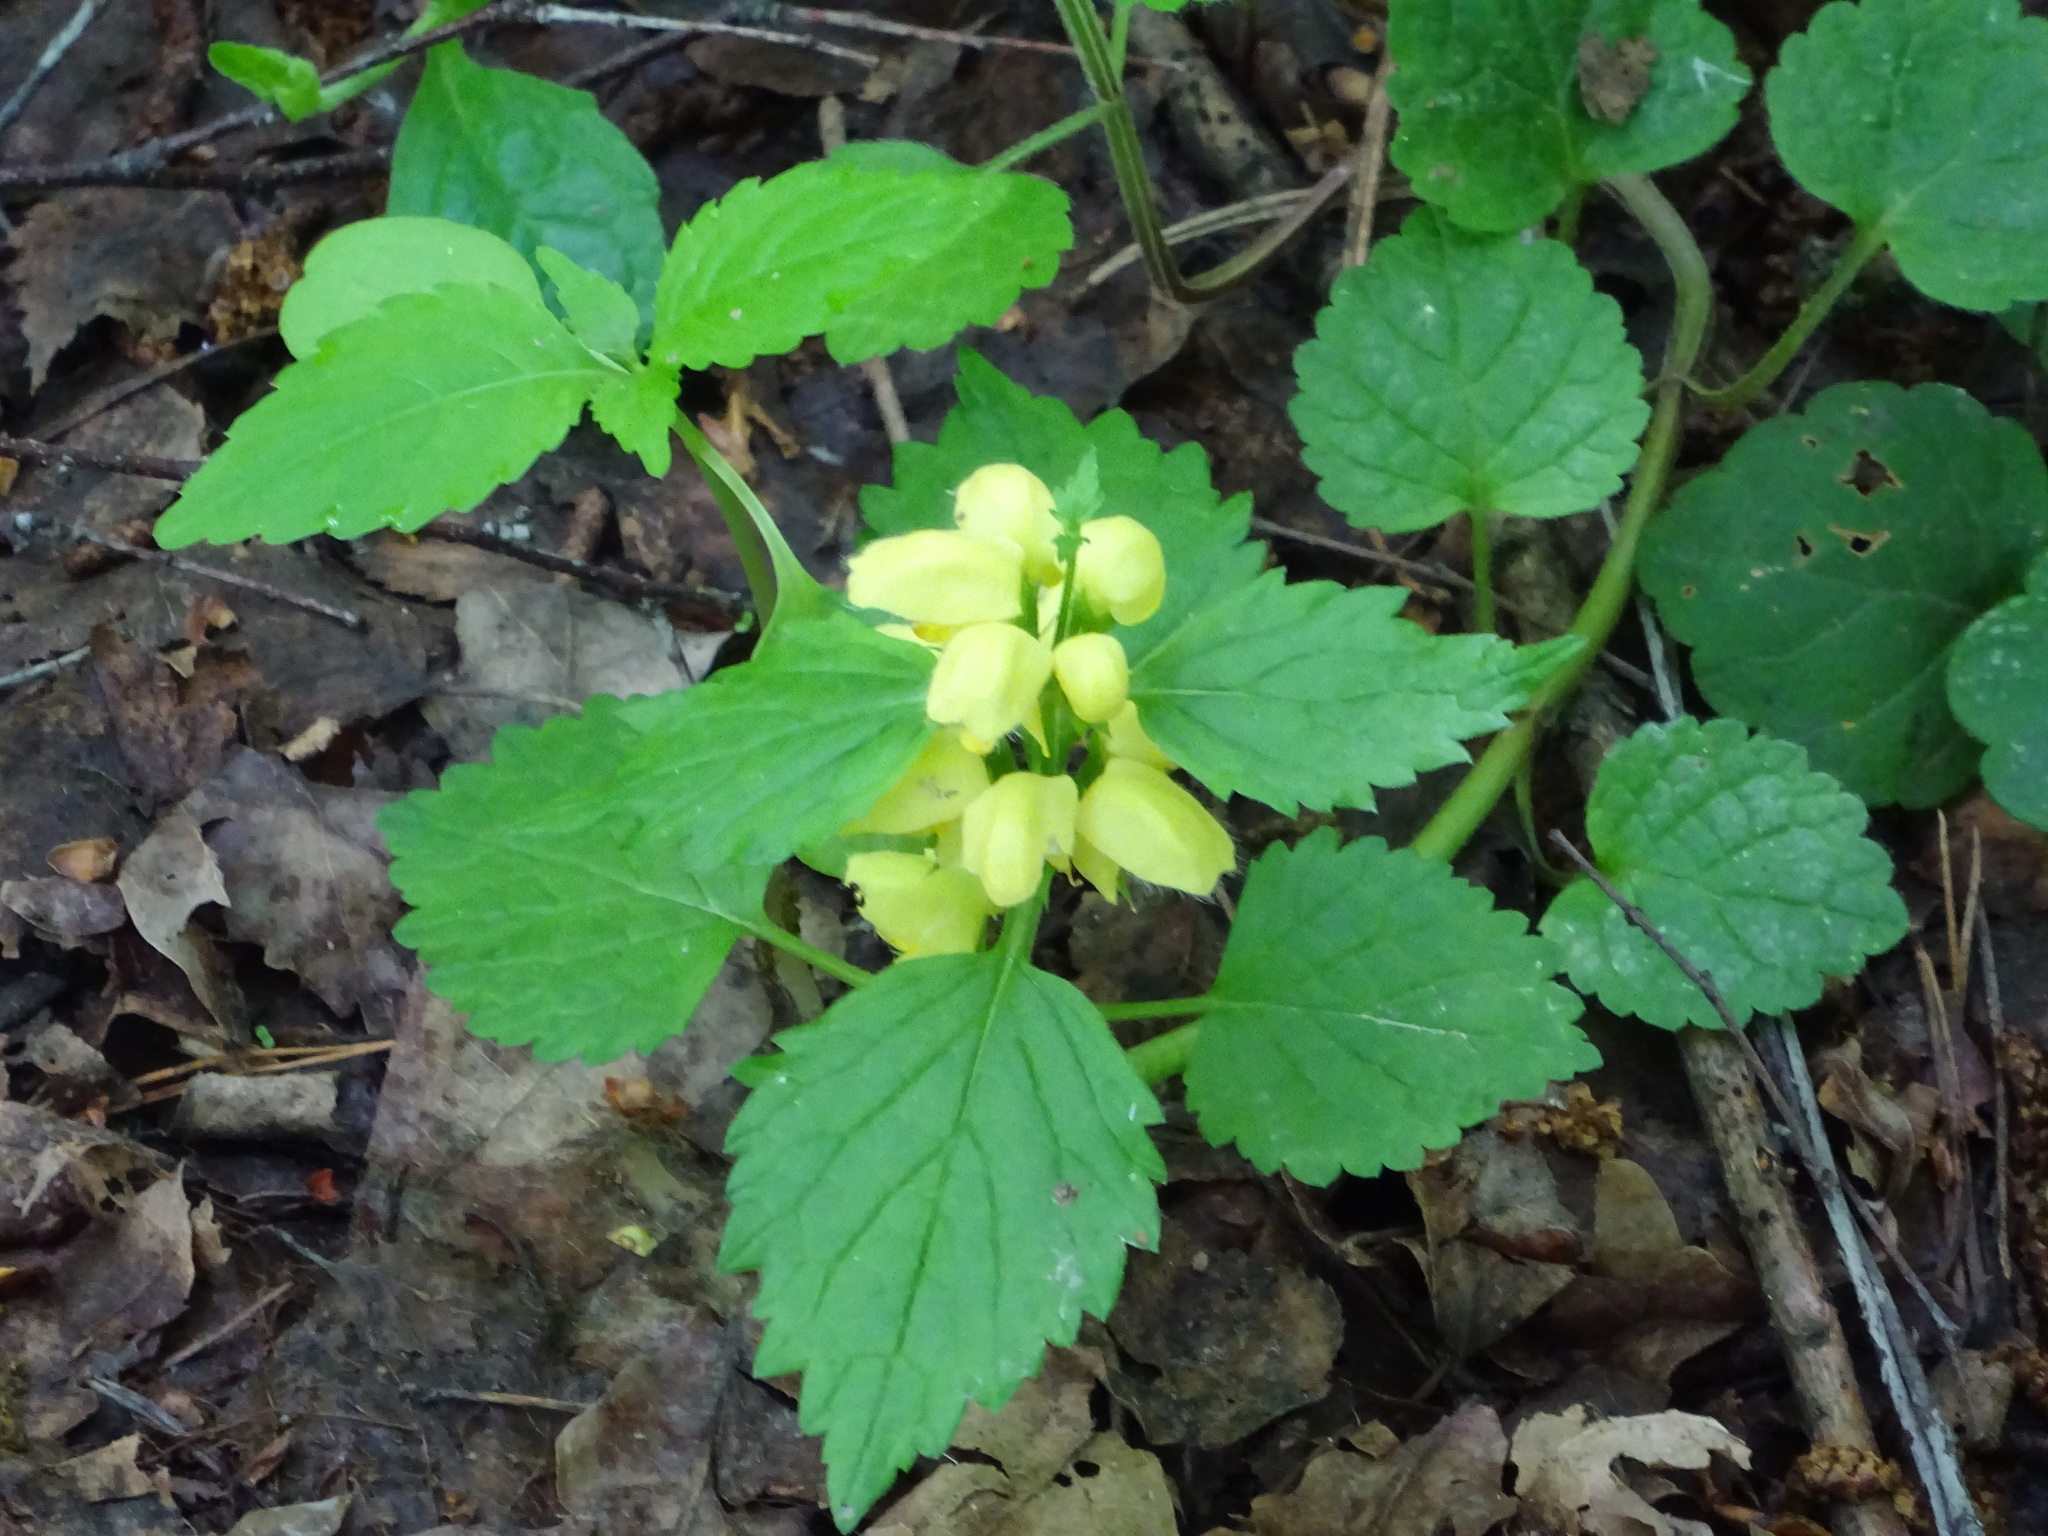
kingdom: Plantae
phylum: Tracheophyta
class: Magnoliopsida
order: Lamiales
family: Lamiaceae
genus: Lamium
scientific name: Lamium galeobdolon
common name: Yellow archangel
